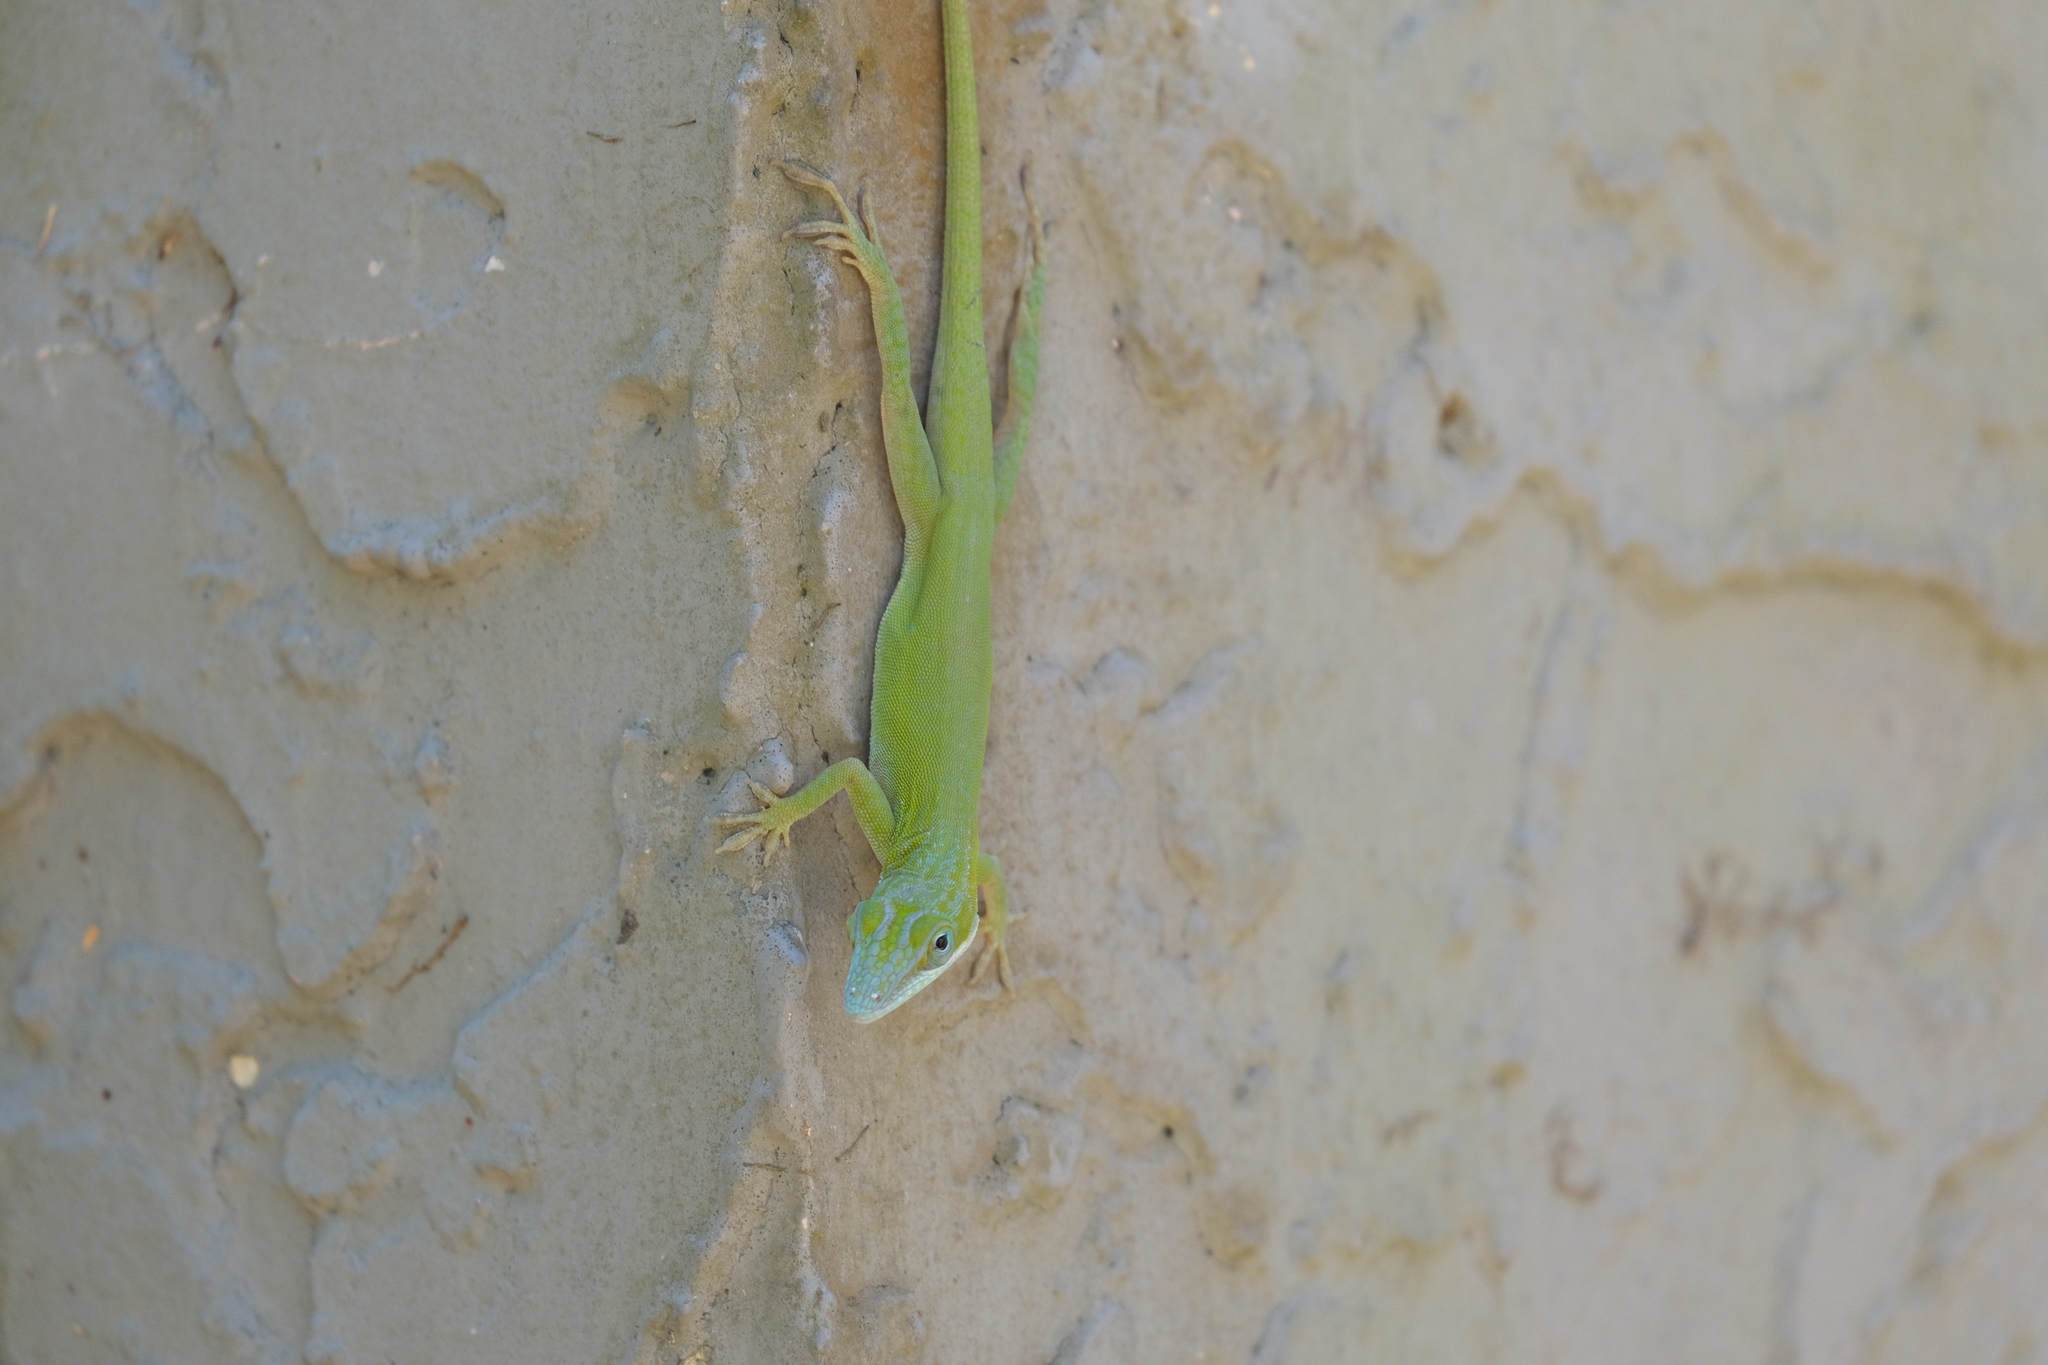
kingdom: Animalia
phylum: Chordata
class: Squamata
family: Dactyloidae
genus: Anolis
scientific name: Anolis allisoni
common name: Allison's anole
